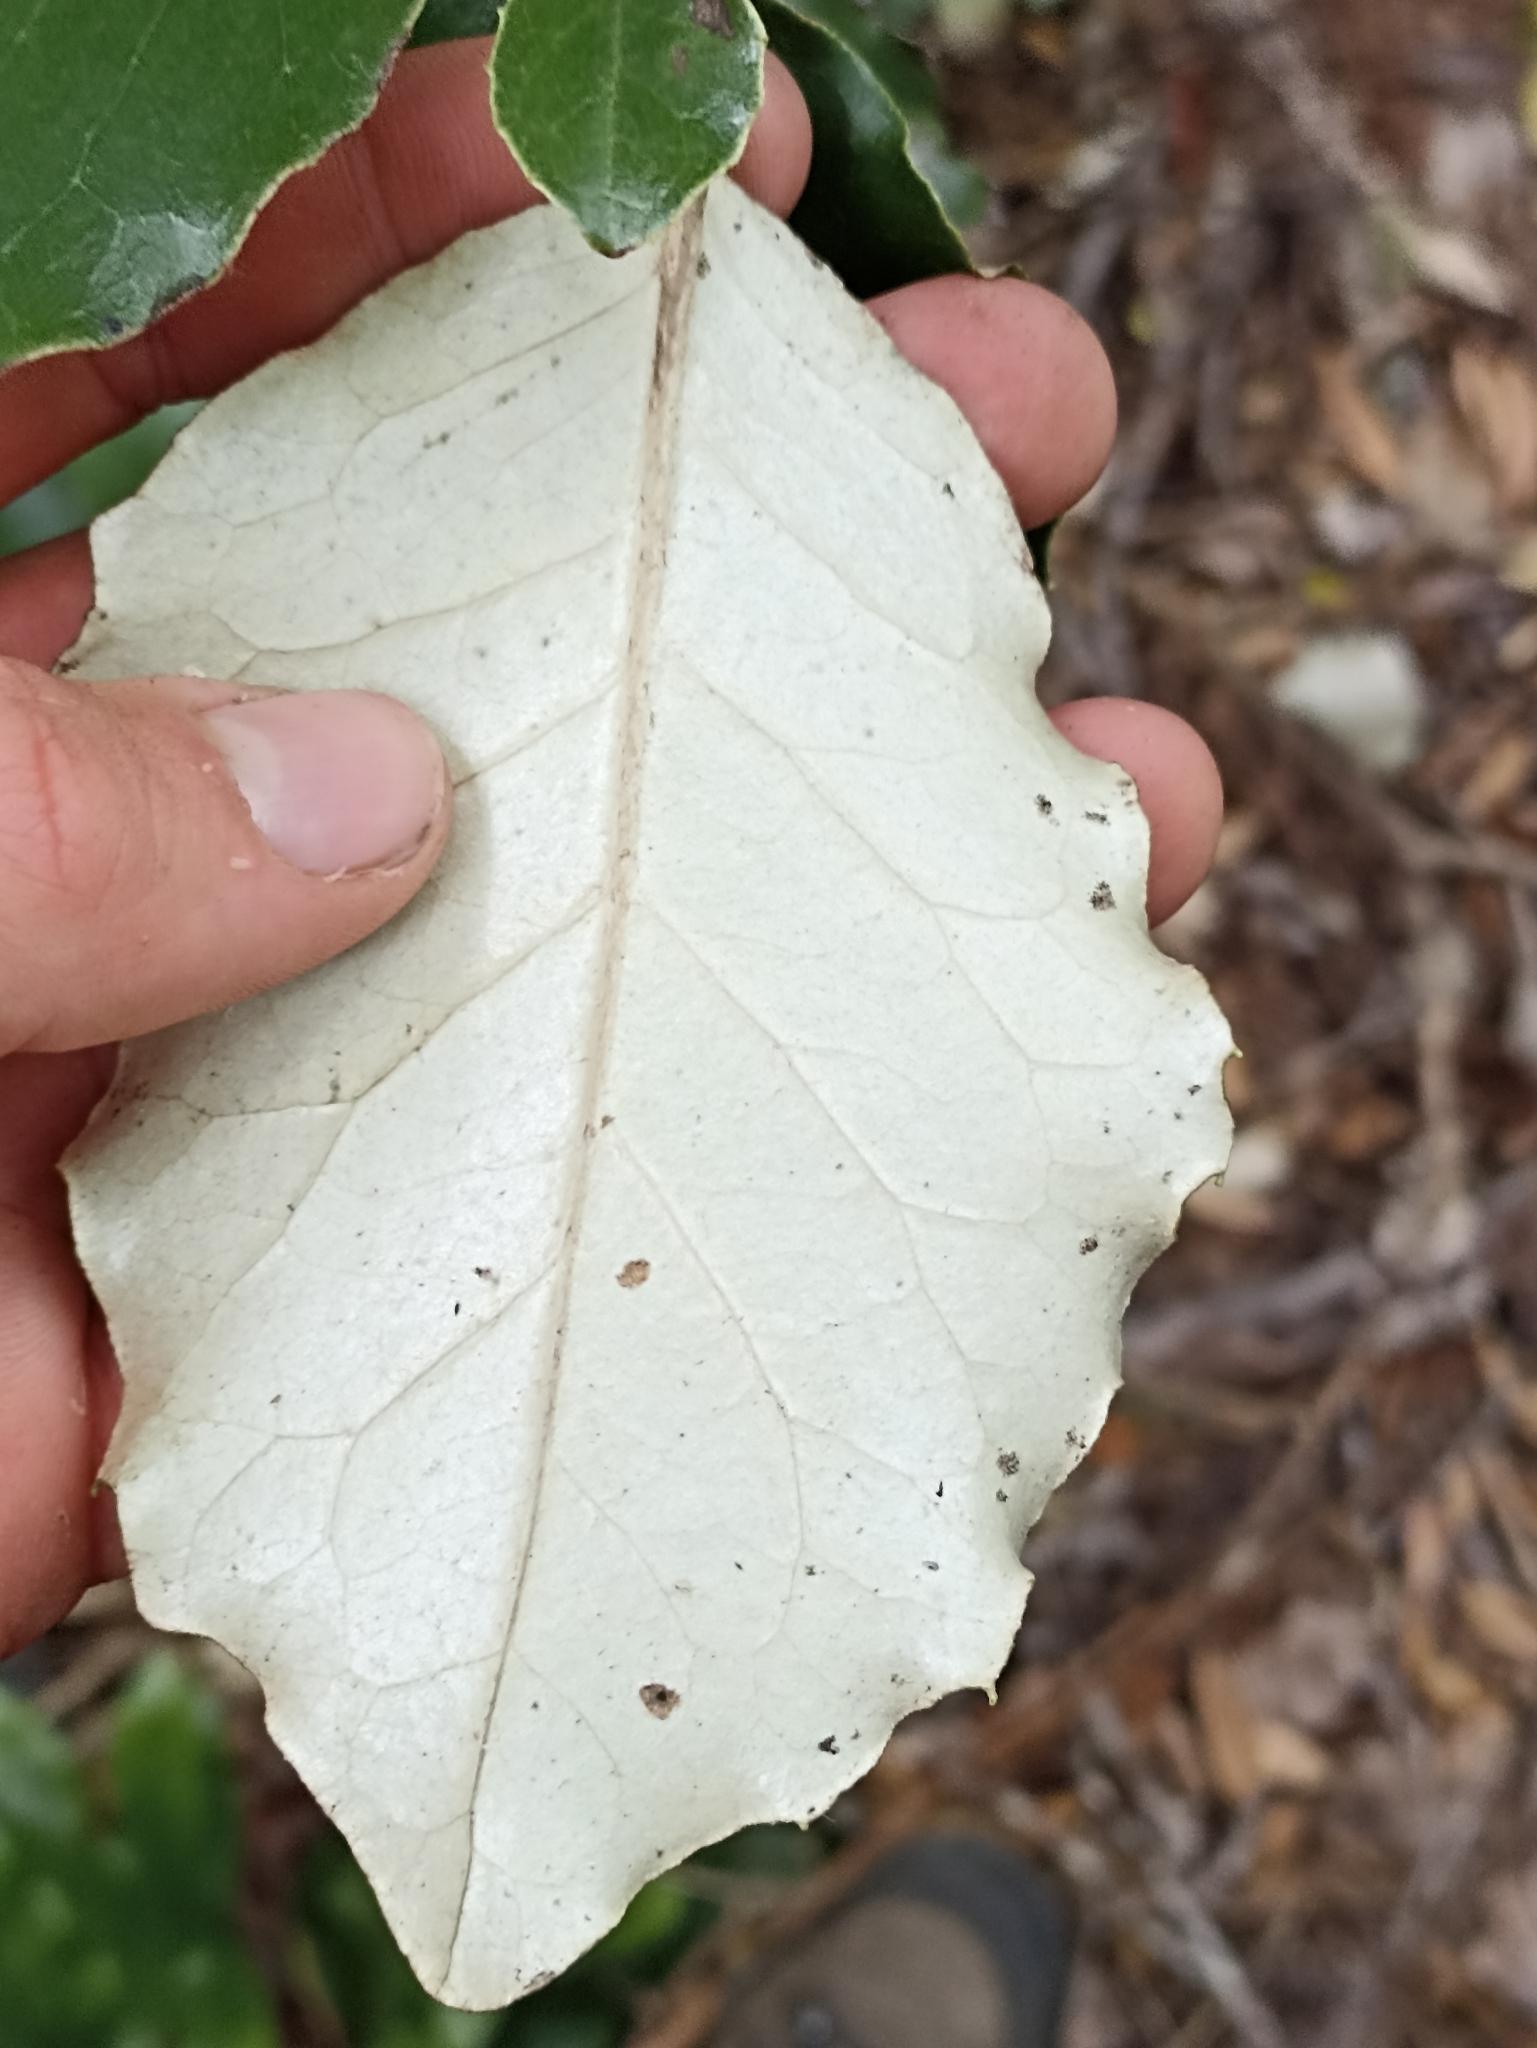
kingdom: Plantae
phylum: Tracheophyta
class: Magnoliopsida
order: Asterales
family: Asteraceae
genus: Olearia
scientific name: Olearia furfuracea
